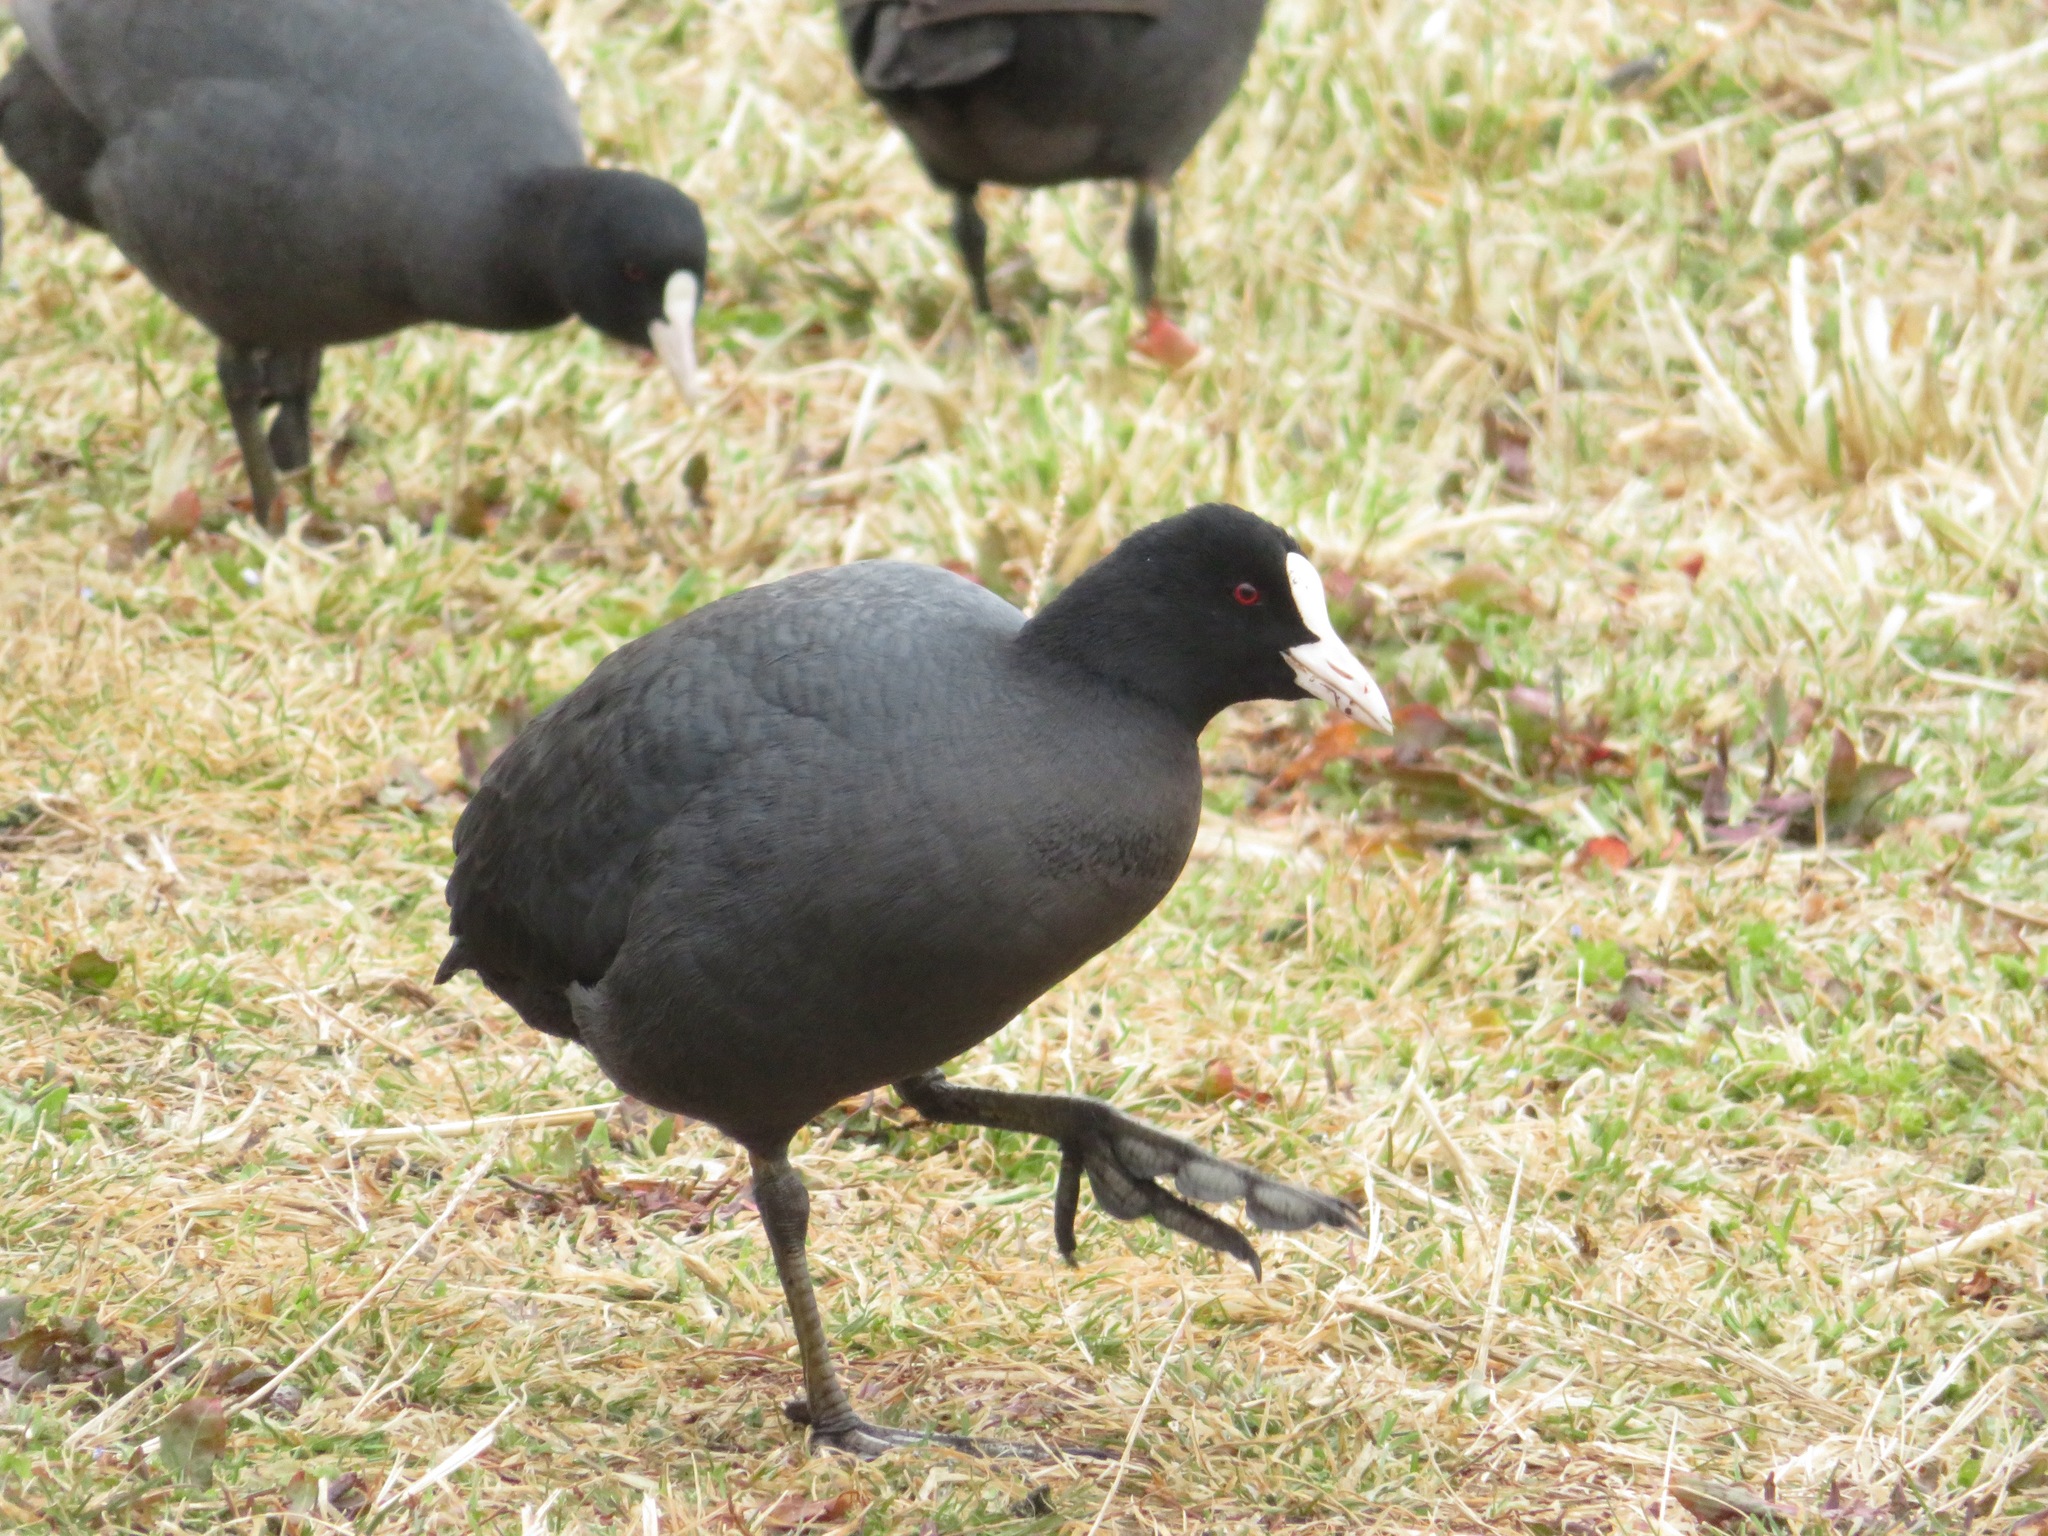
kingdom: Animalia
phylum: Chordata
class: Aves
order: Gruiformes
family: Rallidae
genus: Fulica
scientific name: Fulica atra
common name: Eurasian coot
